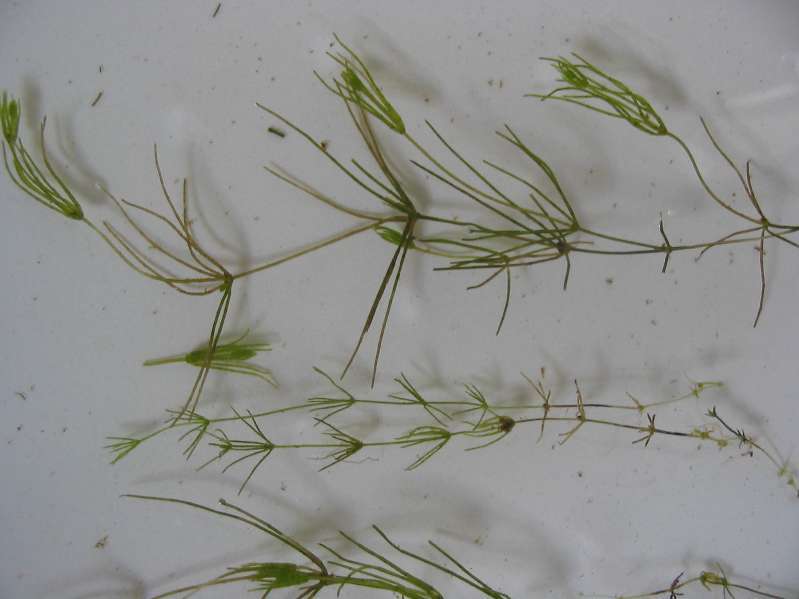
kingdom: Plantae
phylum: Charophyta
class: Charophyceae
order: Charales
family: Characeae
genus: Chara
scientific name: Chara virgata
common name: Delicate stonewort
